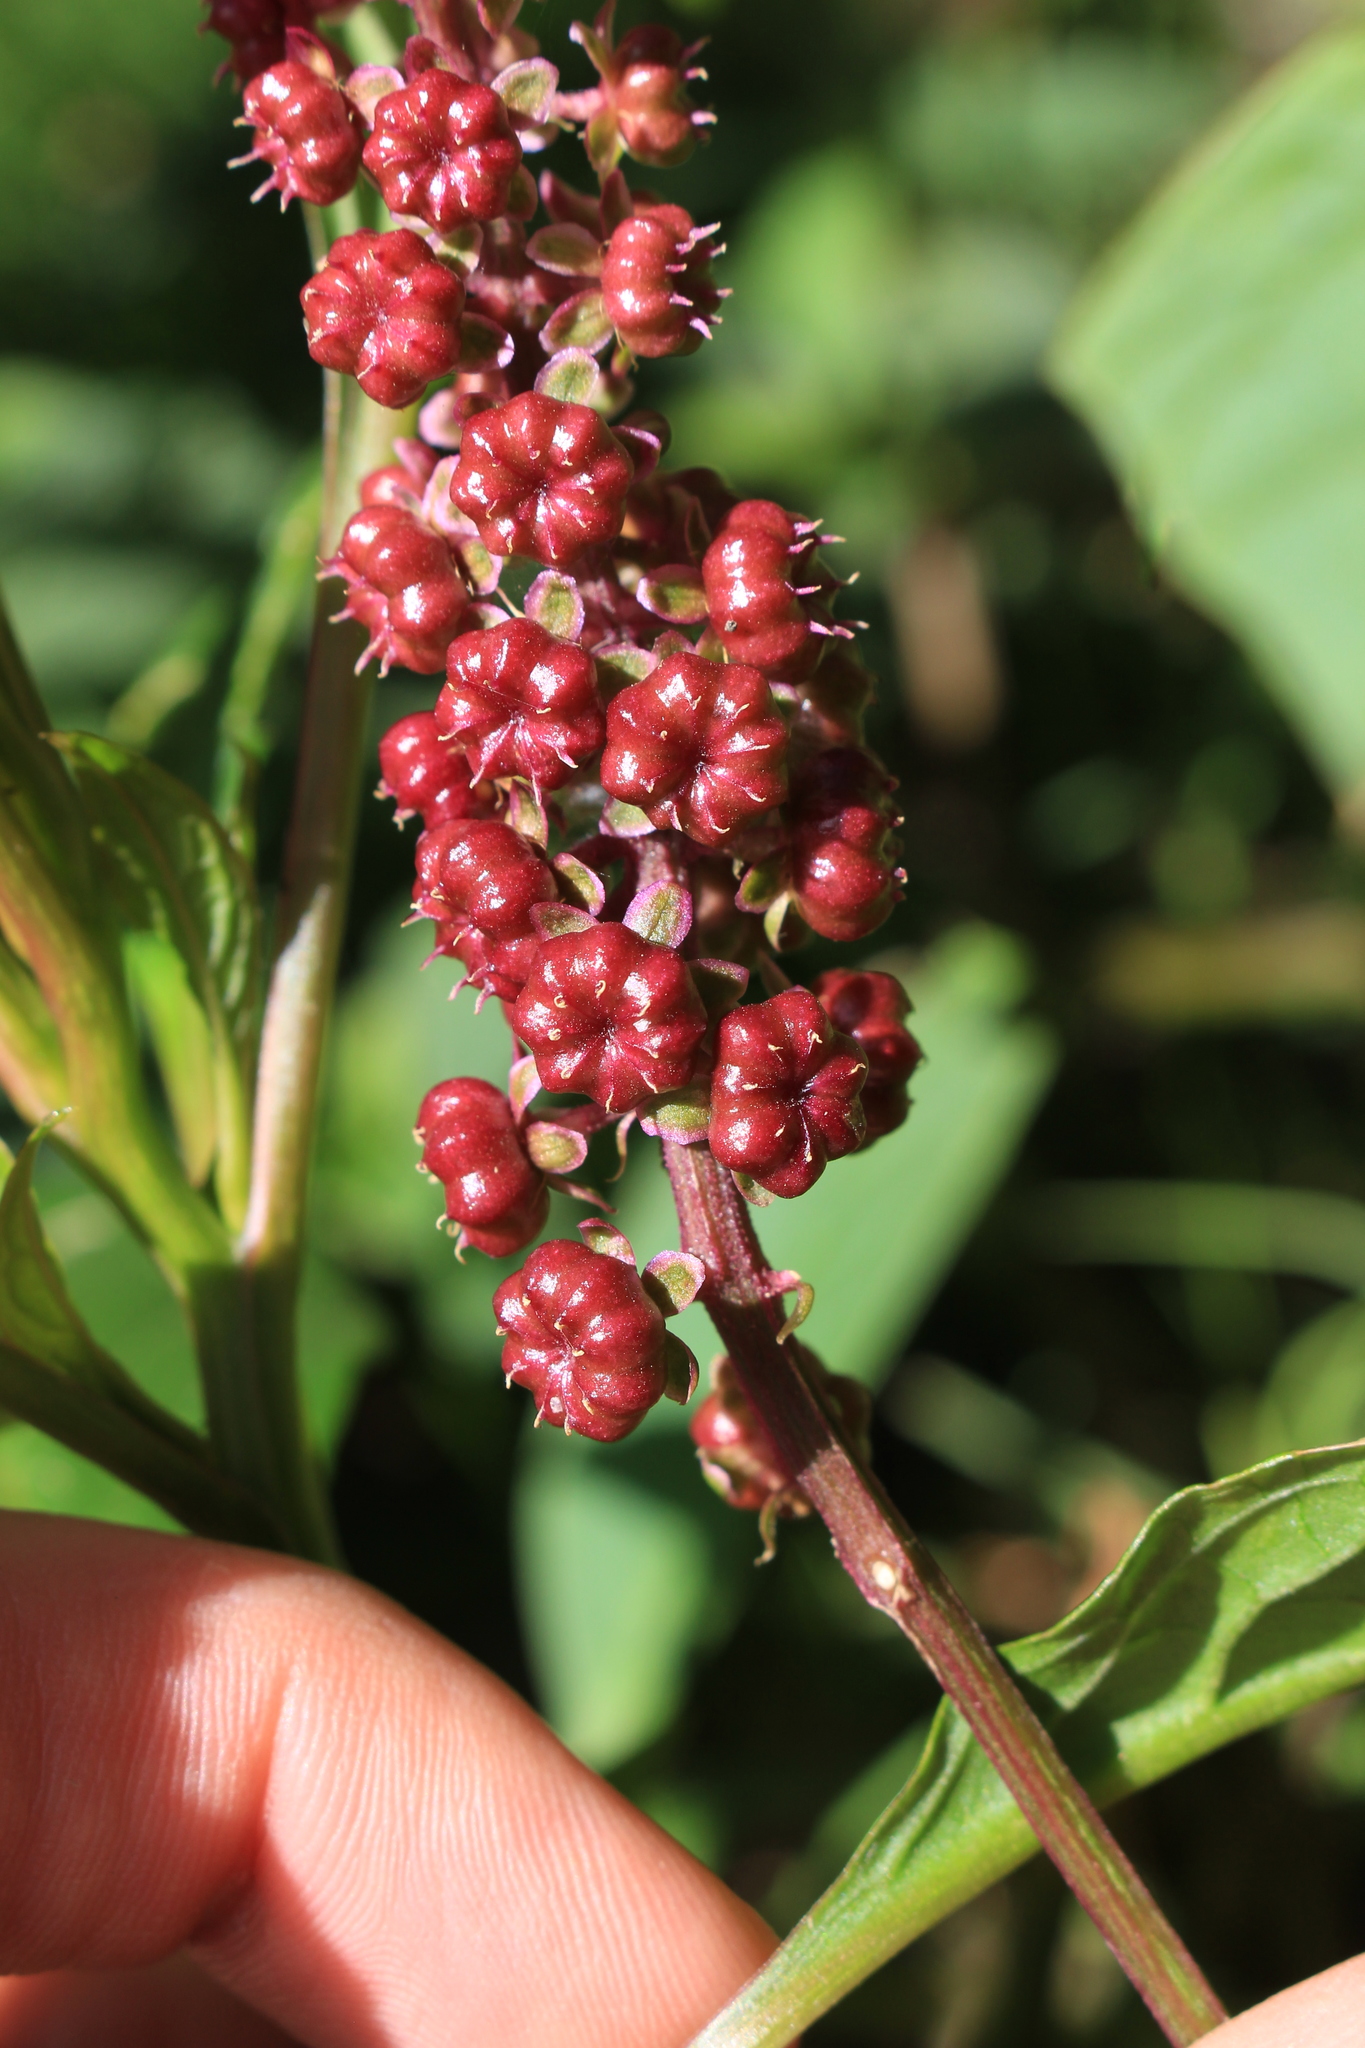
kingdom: Plantae
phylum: Tracheophyta
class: Magnoliopsida
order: Caryophyllales
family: Phytolaccaceae
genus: Phytolacca
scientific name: Phytolacca rugosa
